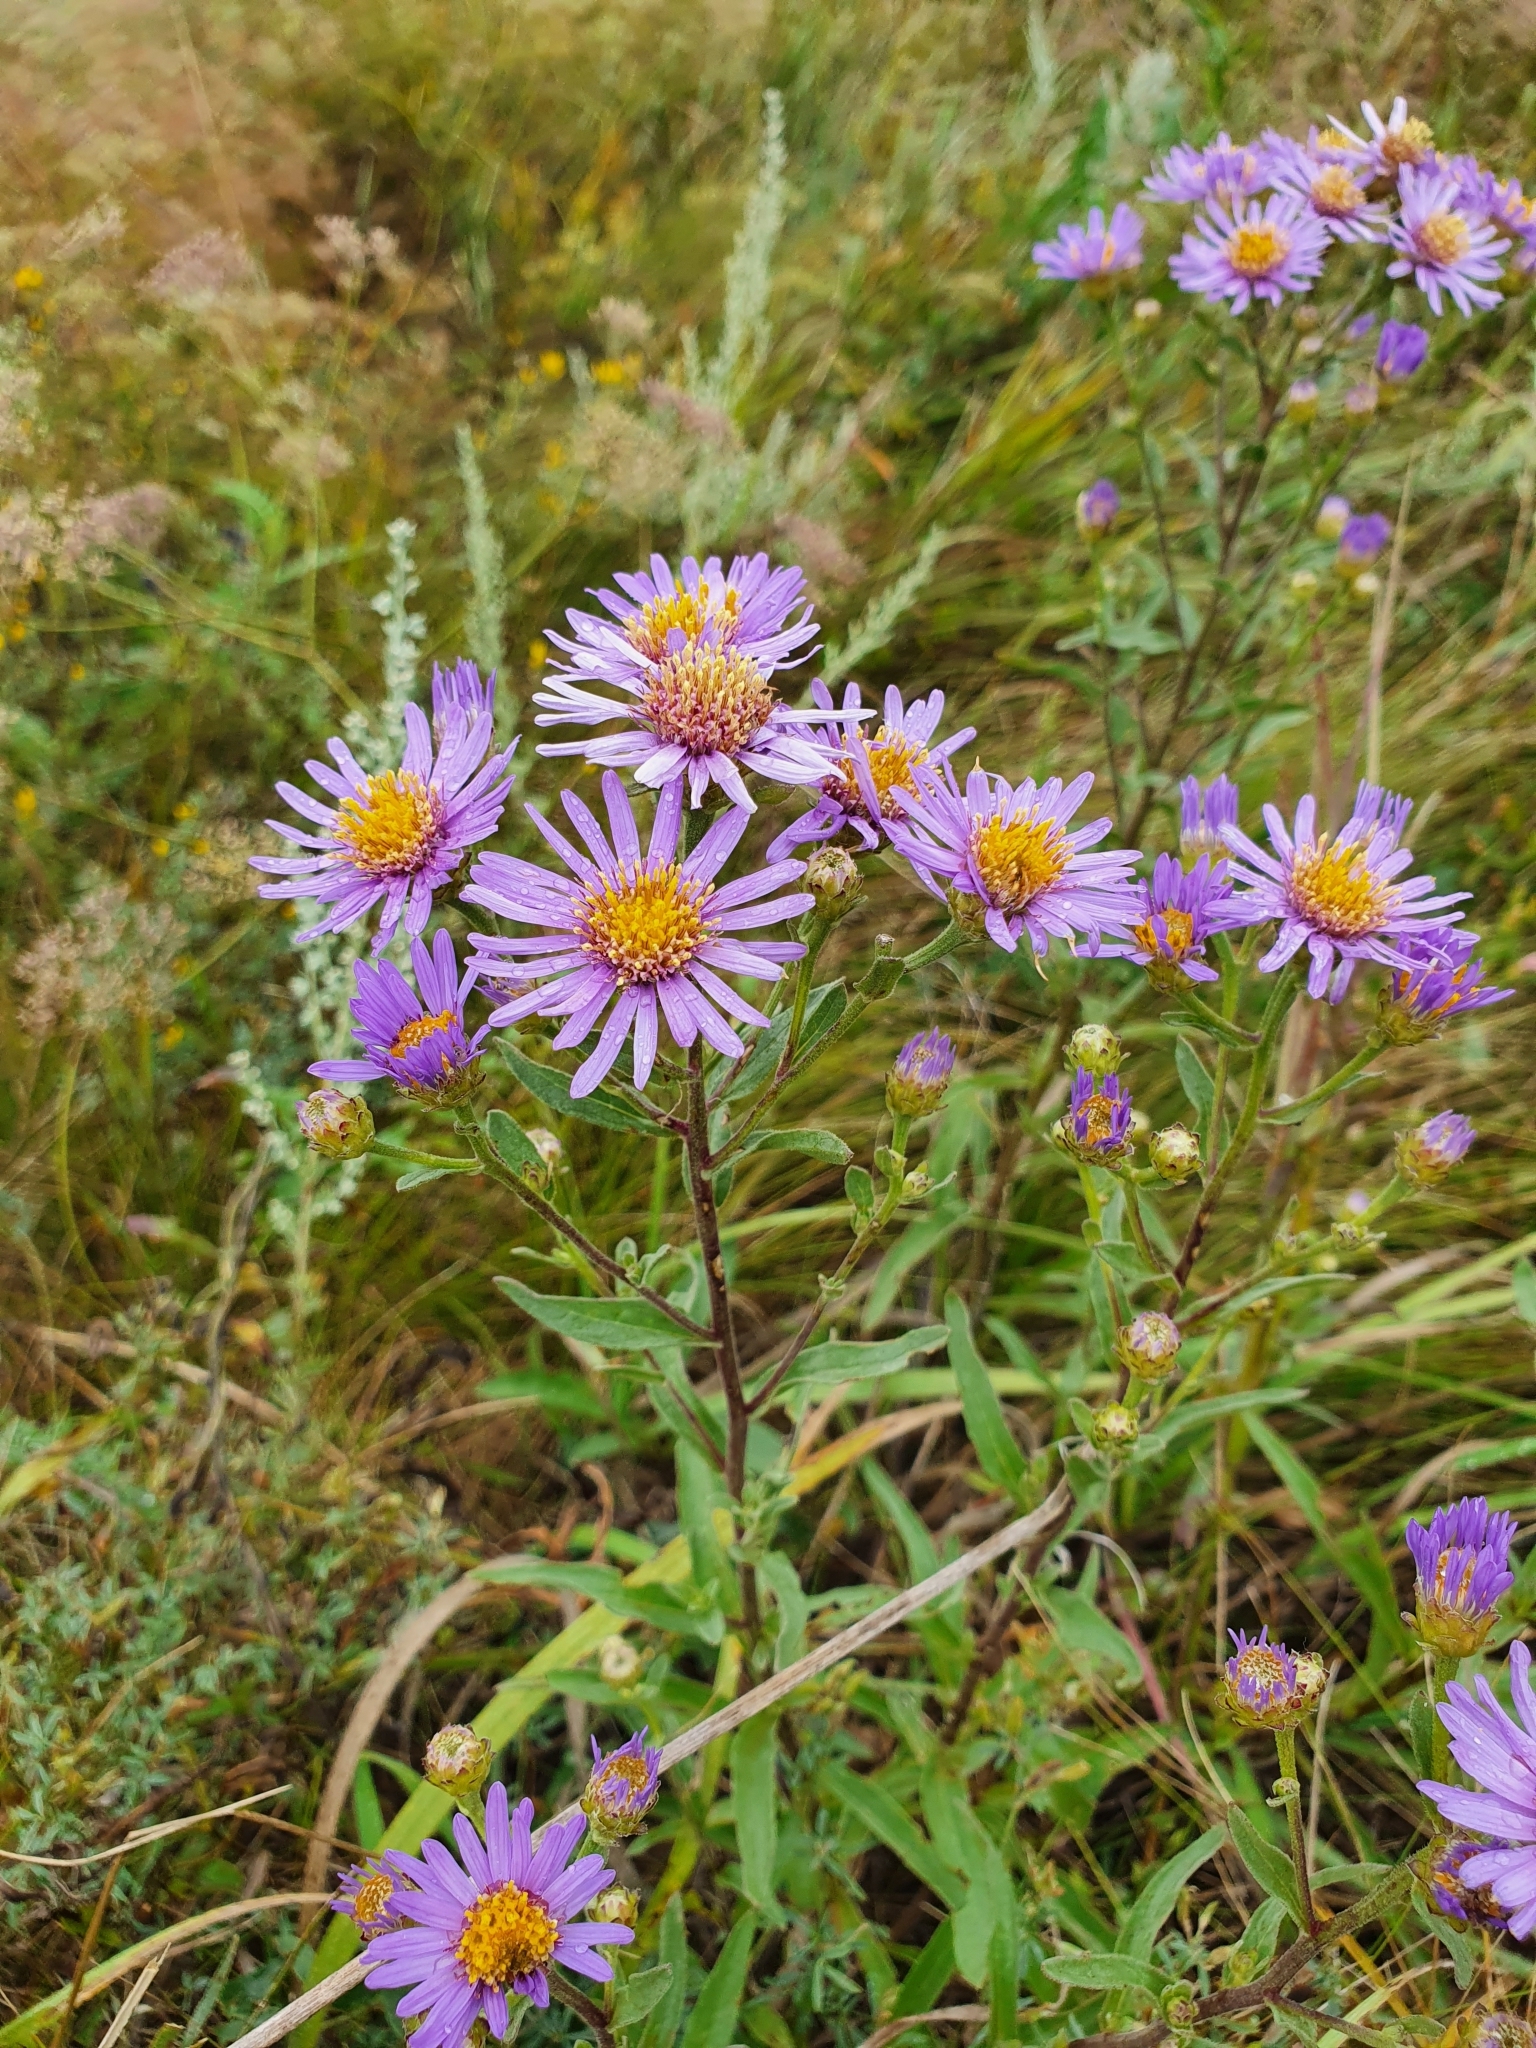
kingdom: Plantae
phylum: Tracheophyta
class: Magnoliopsida
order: Asterales
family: Asteraceae
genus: Aster
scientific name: Aster amellus
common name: European michaelmas daisy
